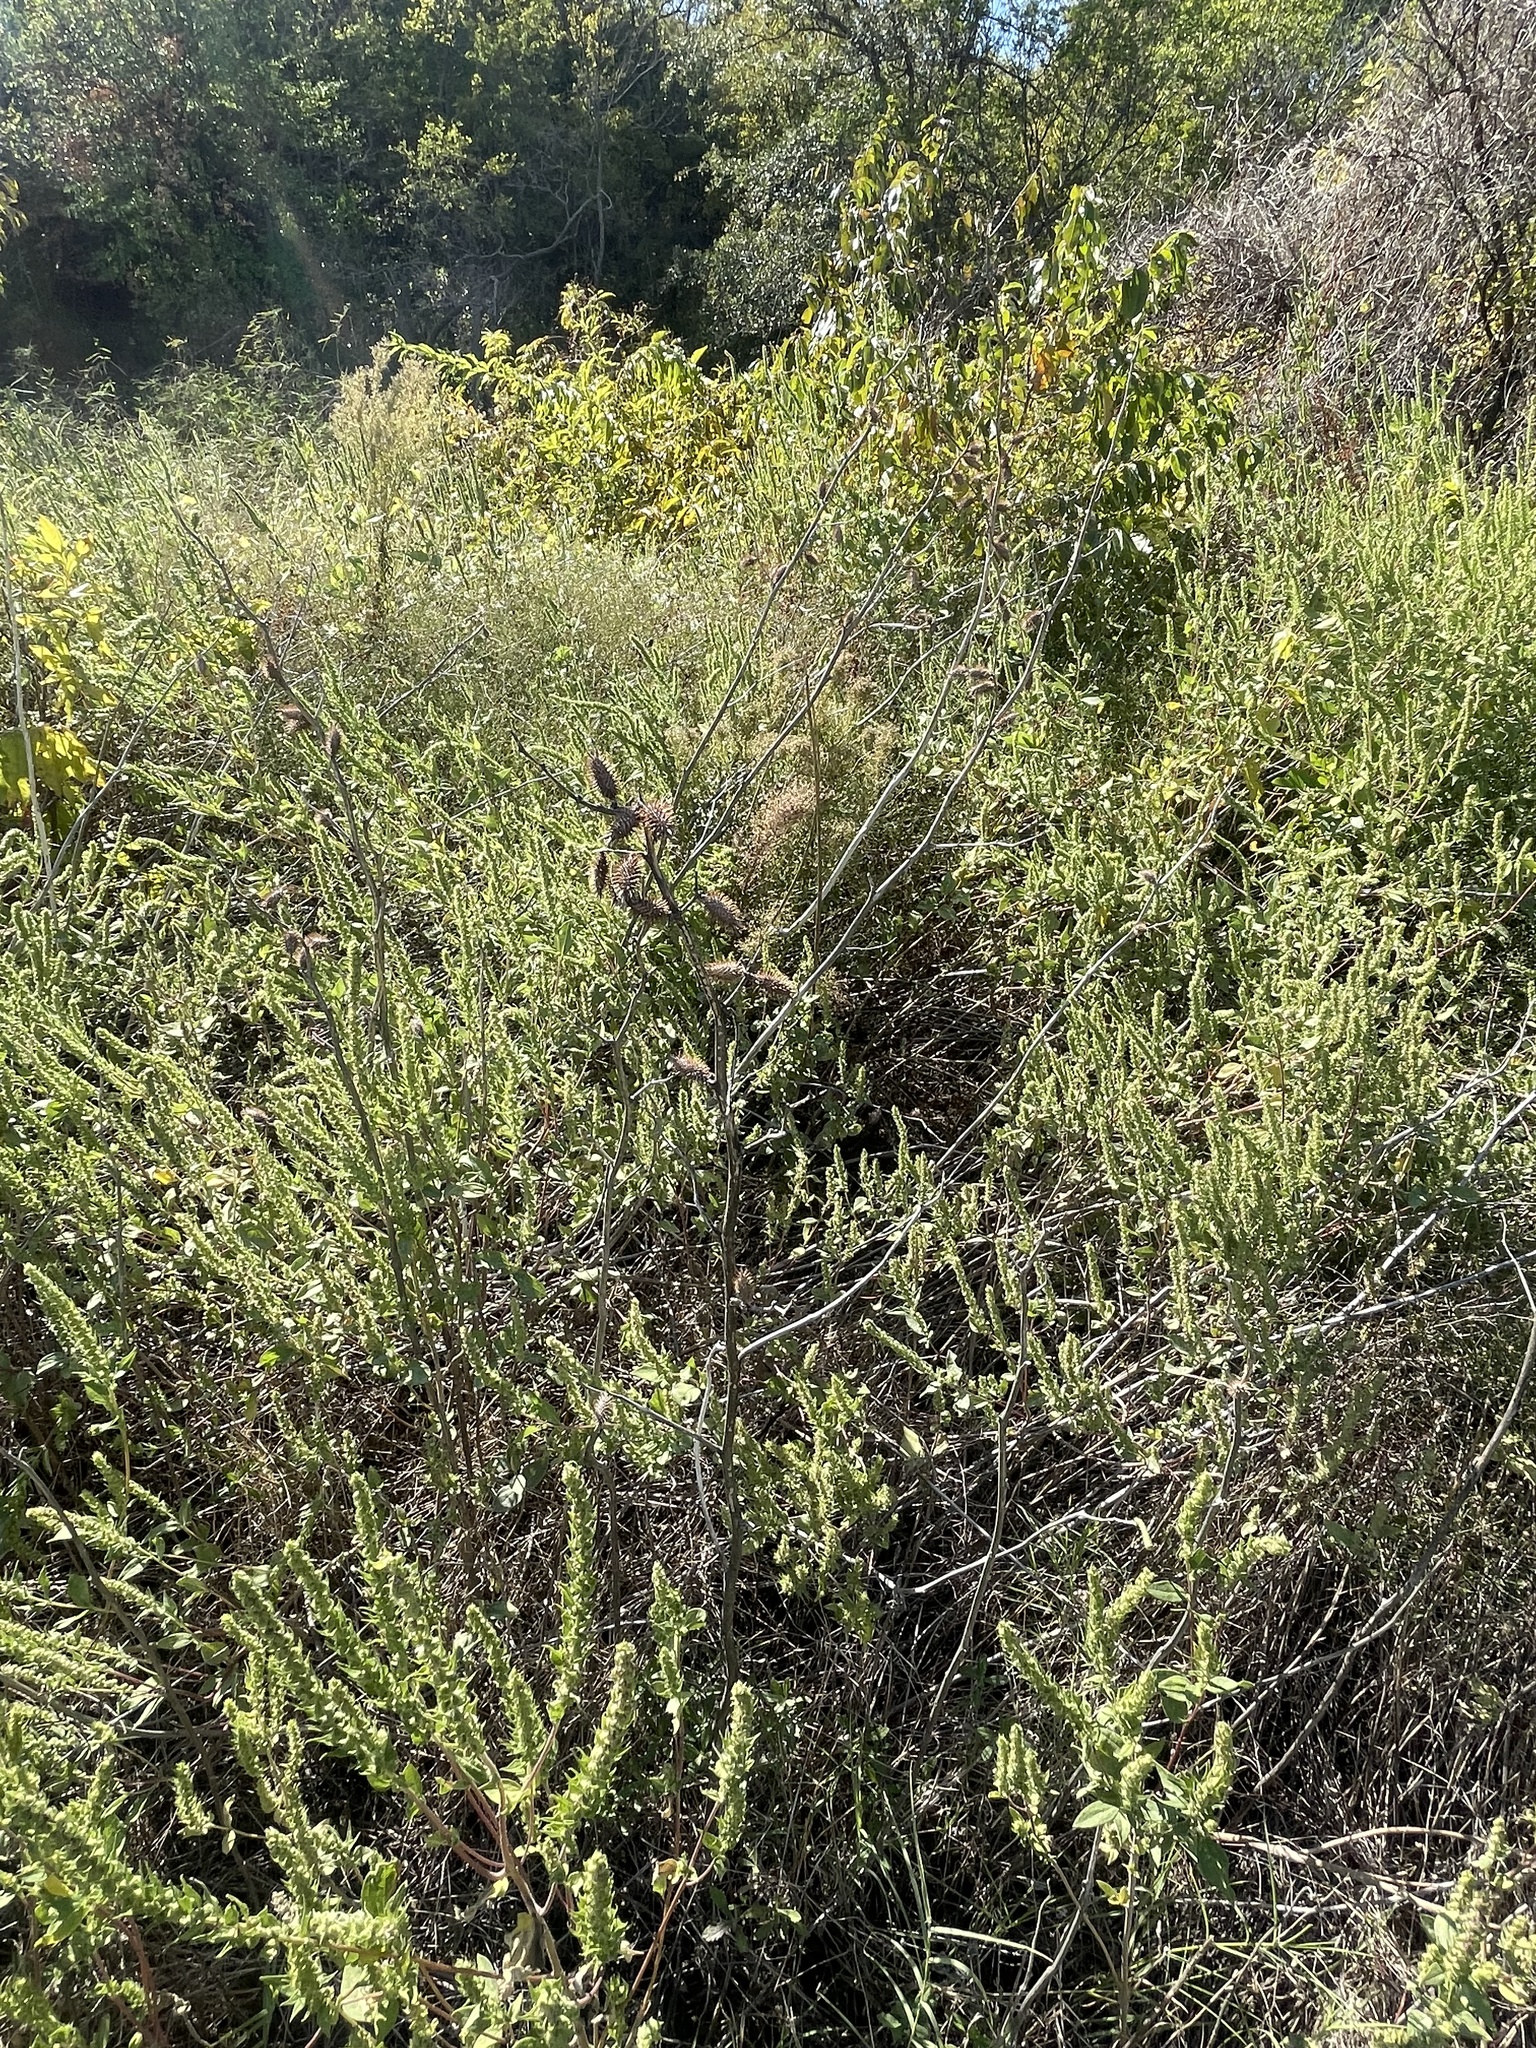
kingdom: Plantae
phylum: Tracheophyta
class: Magnoliopsida
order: Asterales
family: Asteraceae
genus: Xanthium
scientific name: Xanthium strumarium
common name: Rough cocklebur
